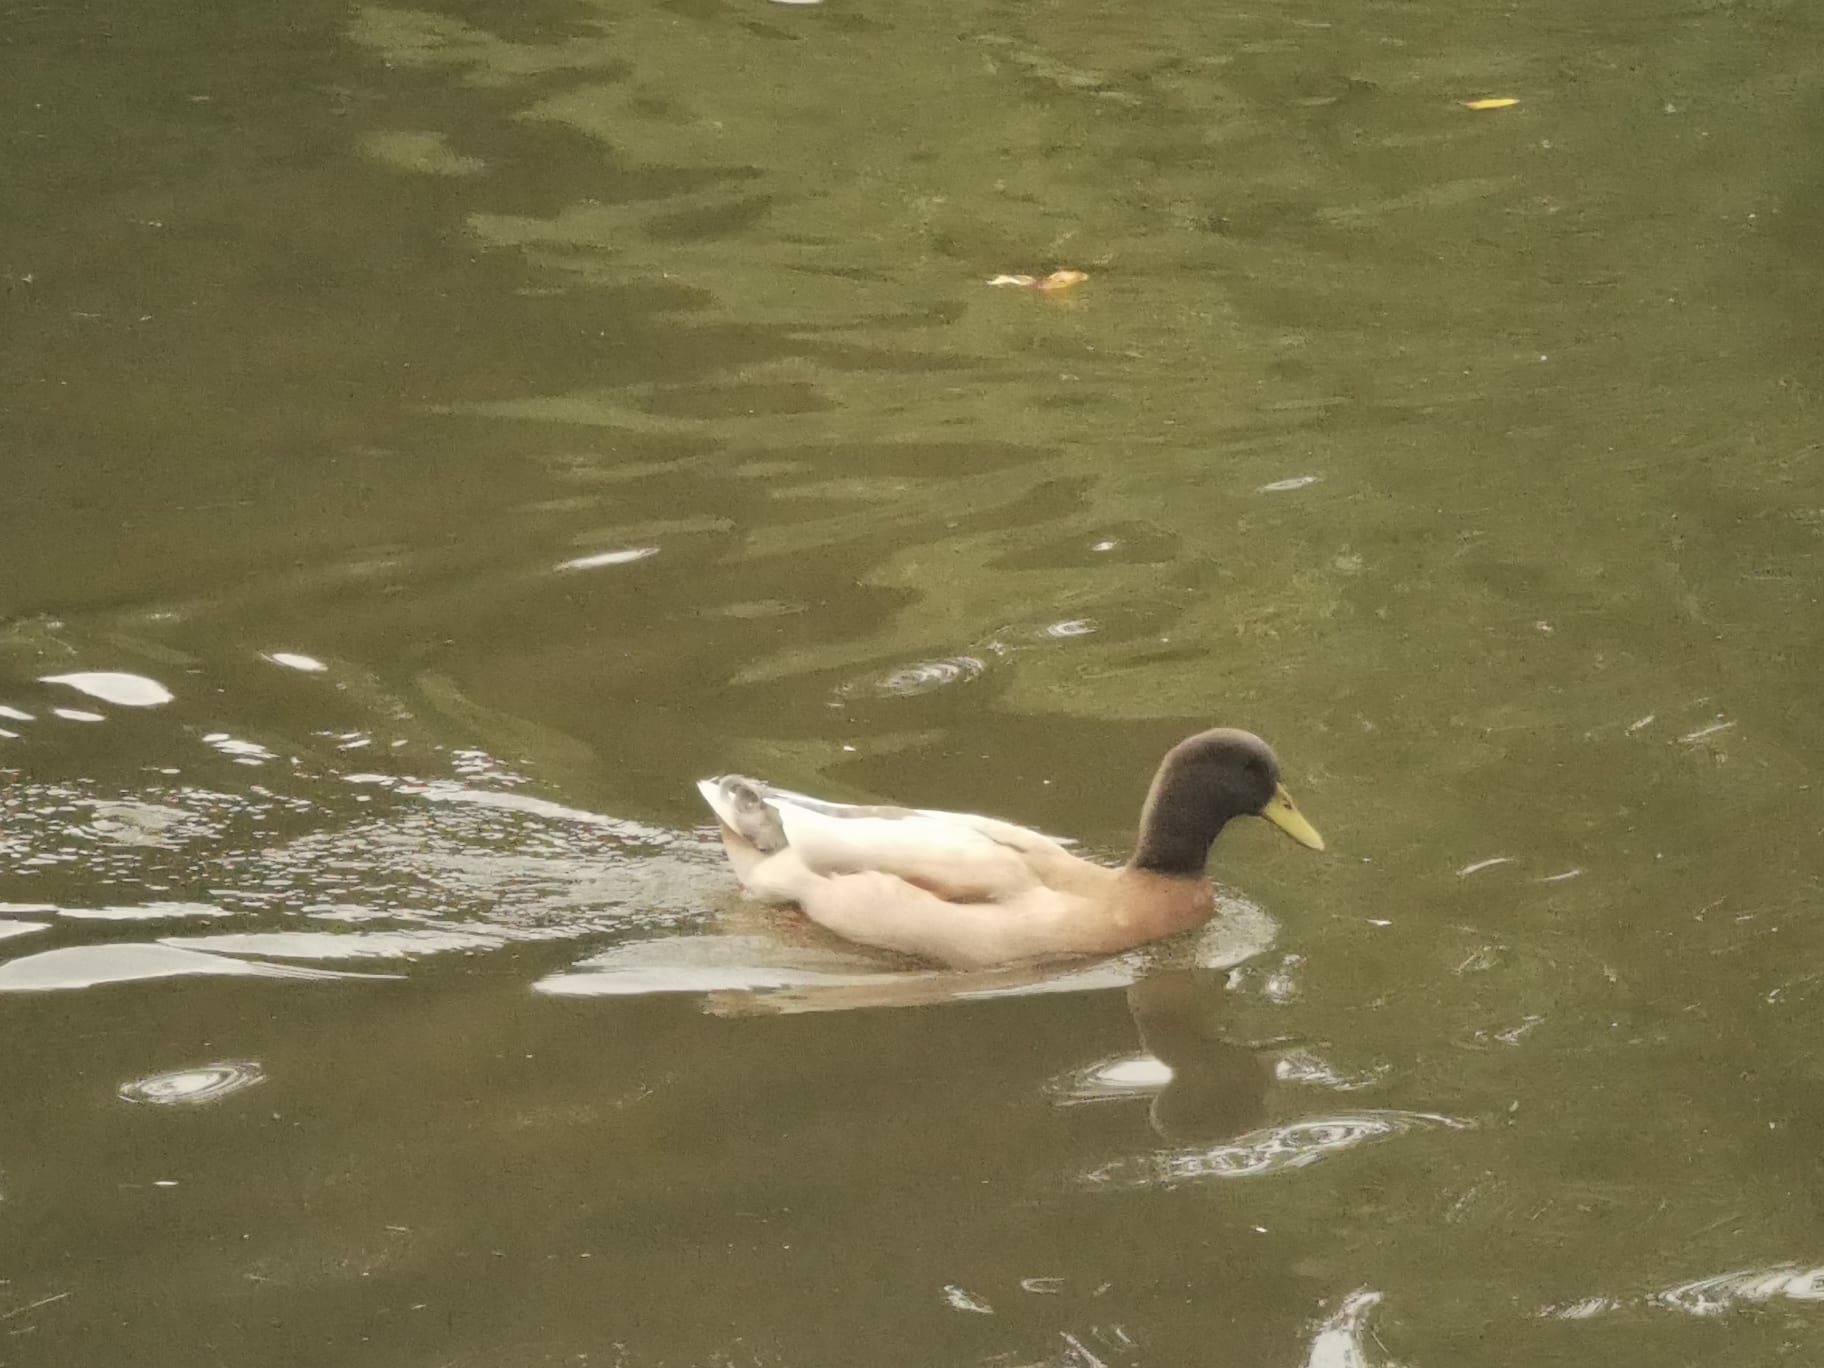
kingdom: Animalia
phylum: Chordata
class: Aves
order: Anseriformes
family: Anatidae
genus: Anas
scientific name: Anas platyrhynchos
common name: Mallard
